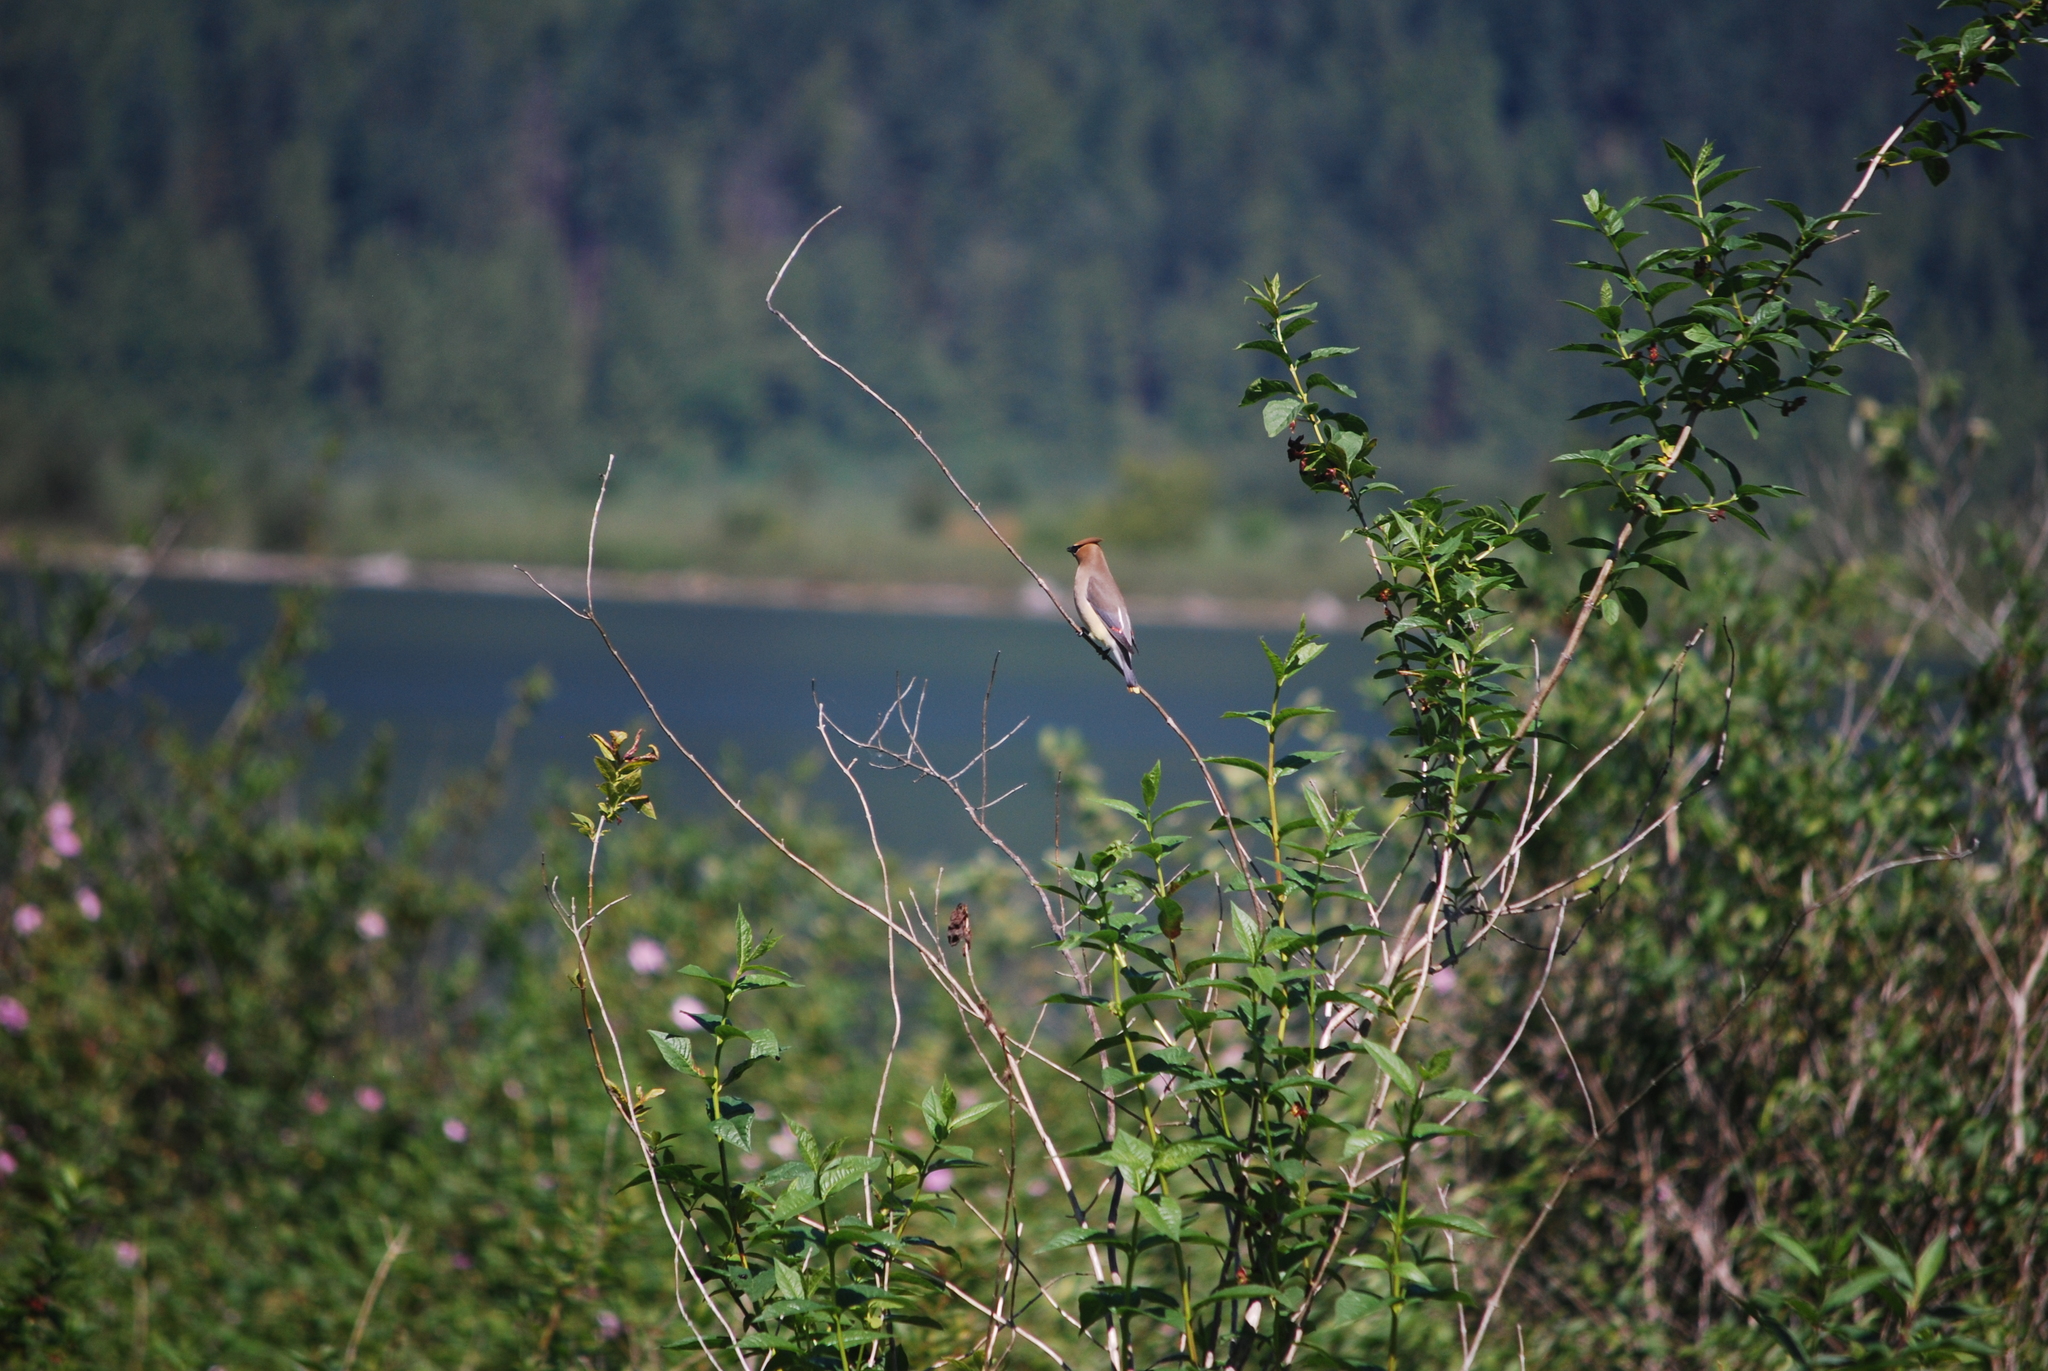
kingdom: Animalia
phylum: Chordata
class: Aves
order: Passeriformes
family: Bombycillidae
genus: Bombycilla
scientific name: Bombycilla cedrorum
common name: Cedar waxwing
